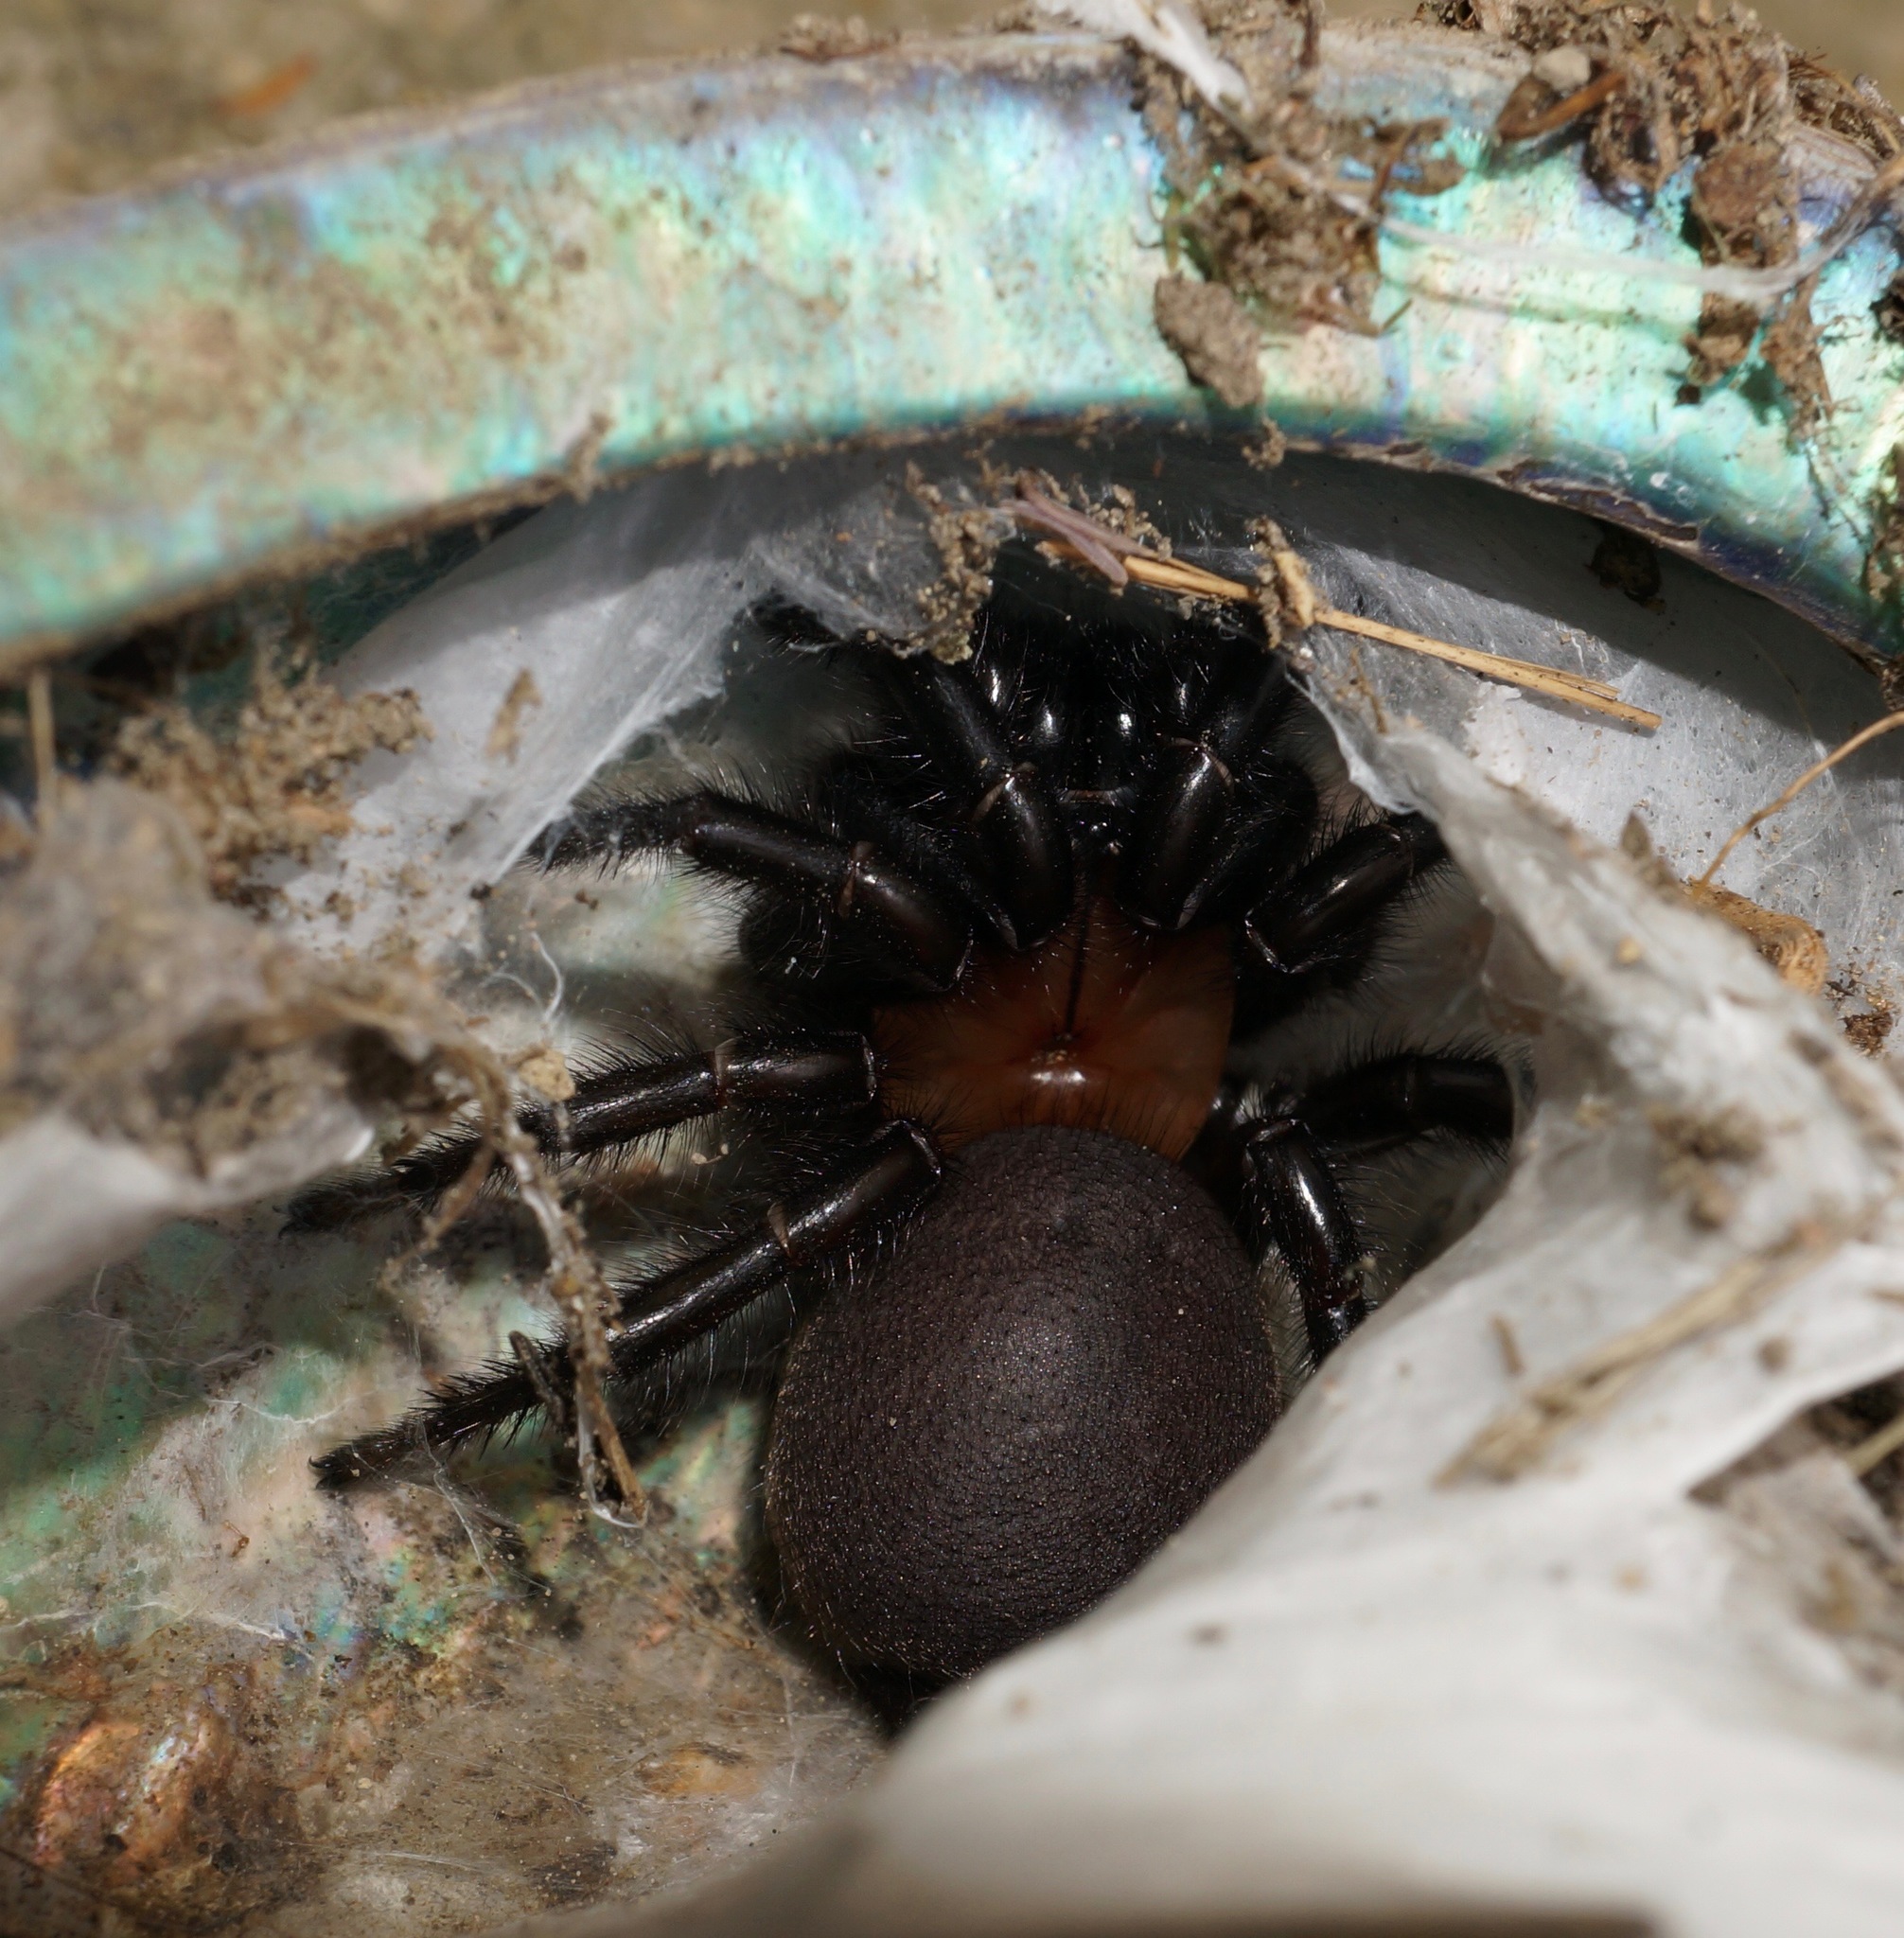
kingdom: Animalia
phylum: Arthropoda
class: Arachnida
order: Araneae
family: Porrhothelidae
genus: Porrhothele
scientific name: Porrhothele antipodiana
